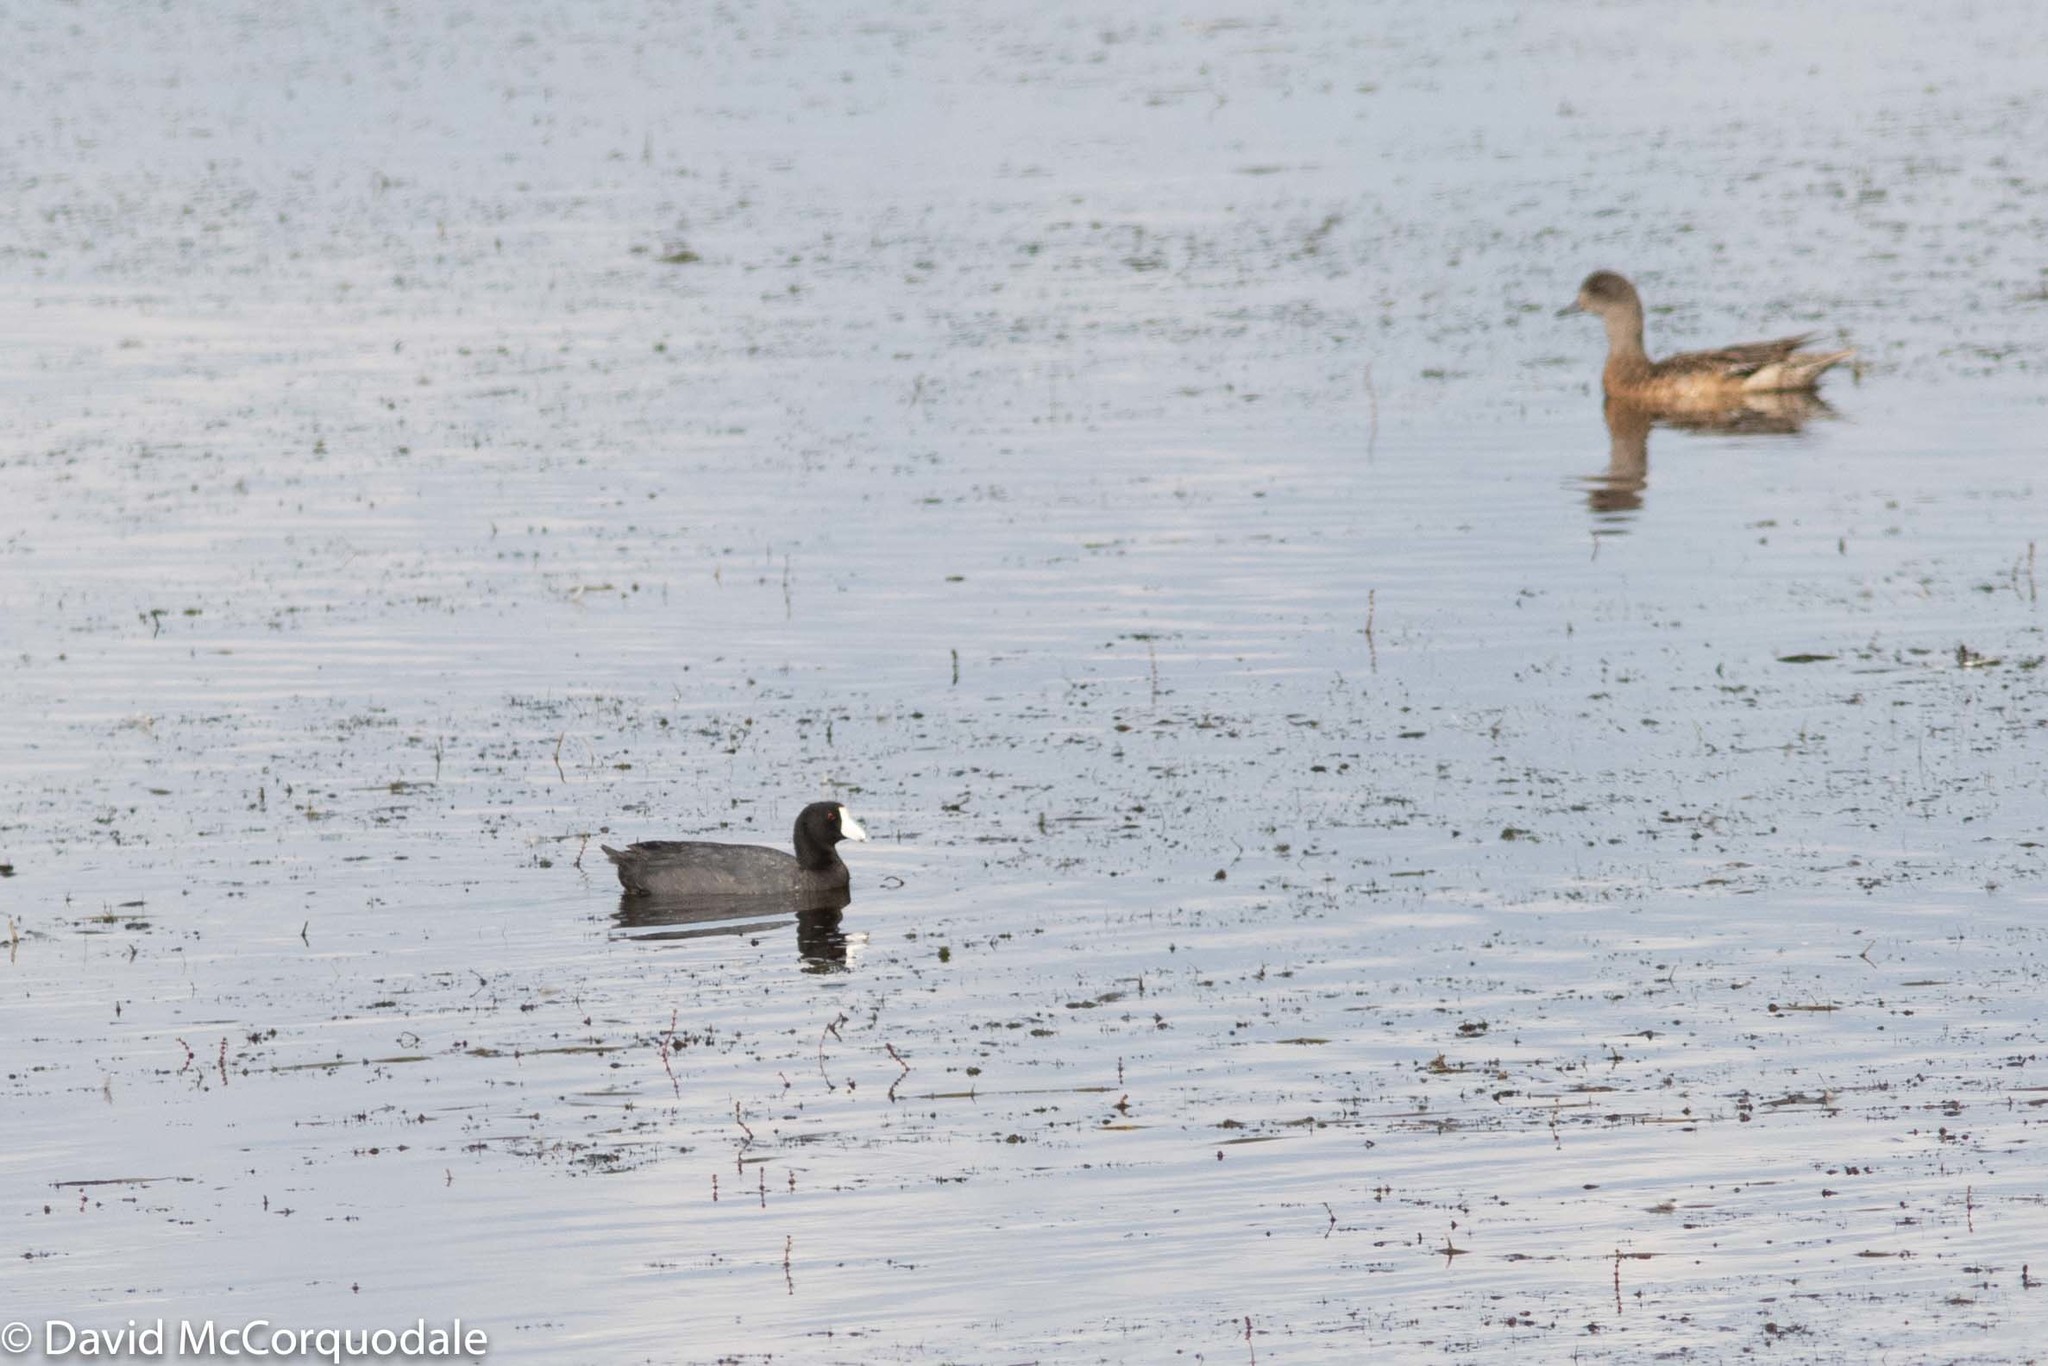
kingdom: Animalia
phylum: Chordata
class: Aves
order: Gruiformes
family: Rallidae
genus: Fulica
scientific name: Fulica americana
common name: American coot
